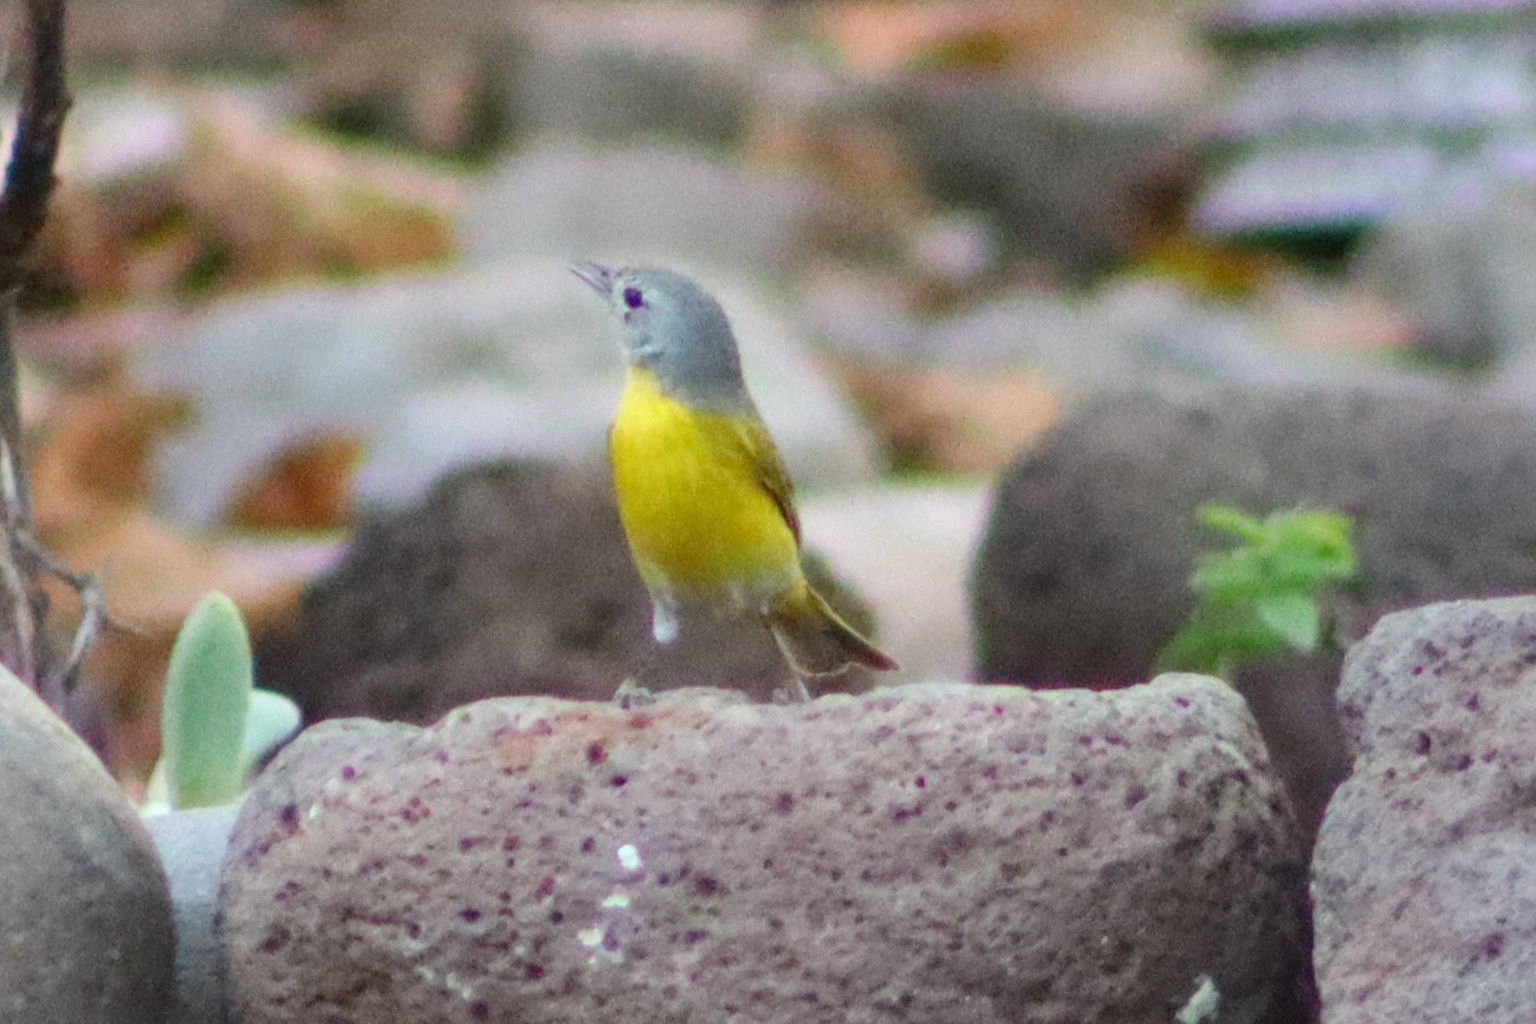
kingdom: Animalia
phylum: Chordata
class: Aves
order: Passeriformes
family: Parulidae
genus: Leiothlypis
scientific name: Leiothlypis ruficapilla
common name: Nashville warbler
